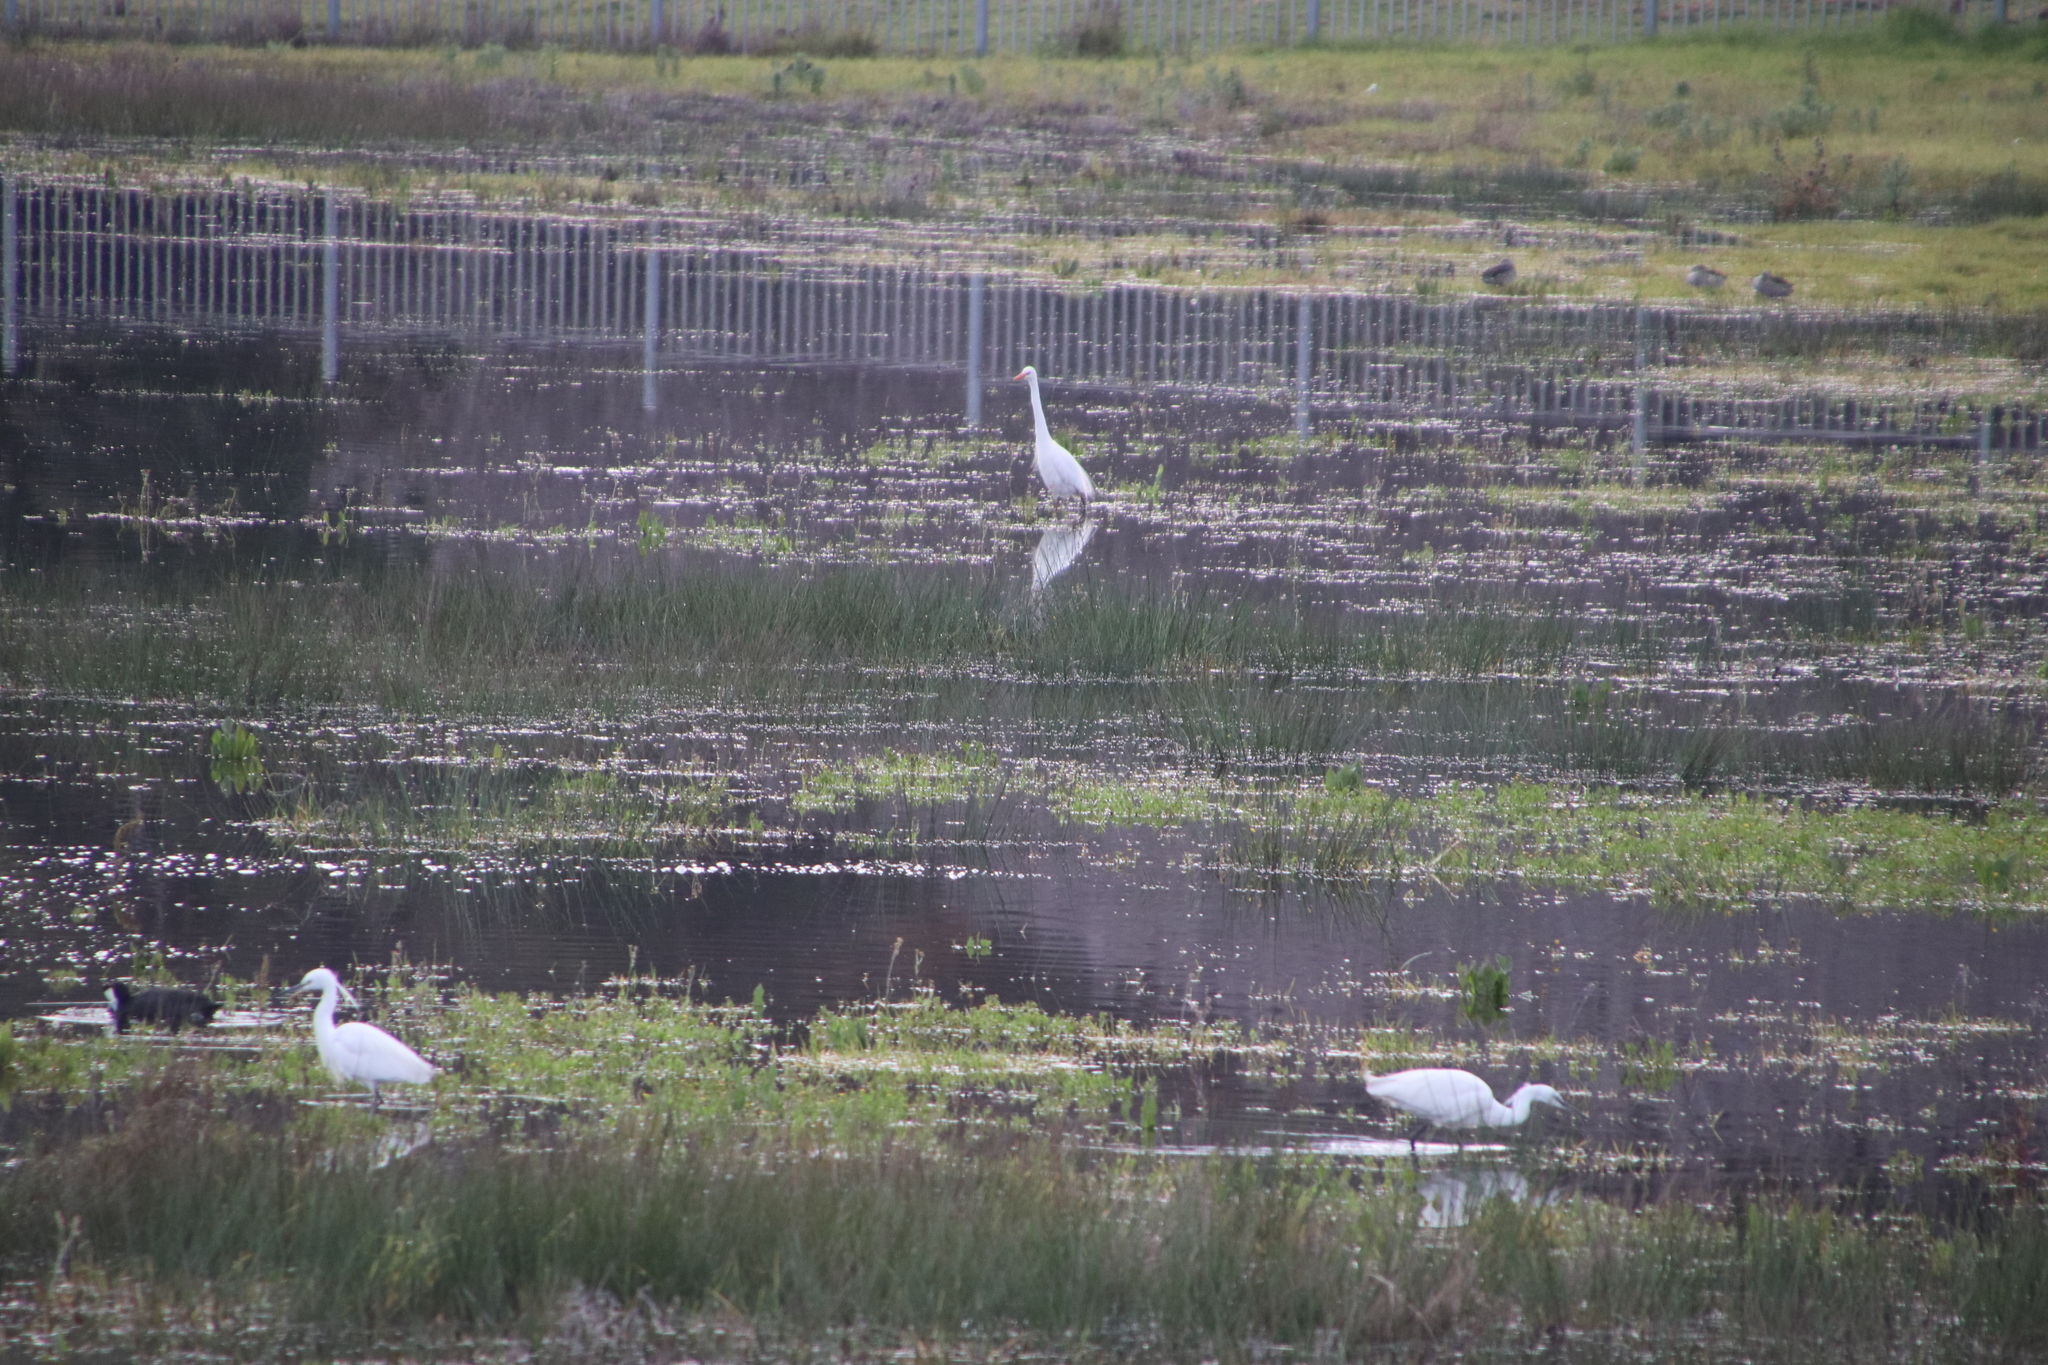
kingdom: Animalia
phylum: Chordata
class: Aves
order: Pelecaniformes
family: Ardeidae
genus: Egretta
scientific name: Egretta garzetta
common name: Little egret
